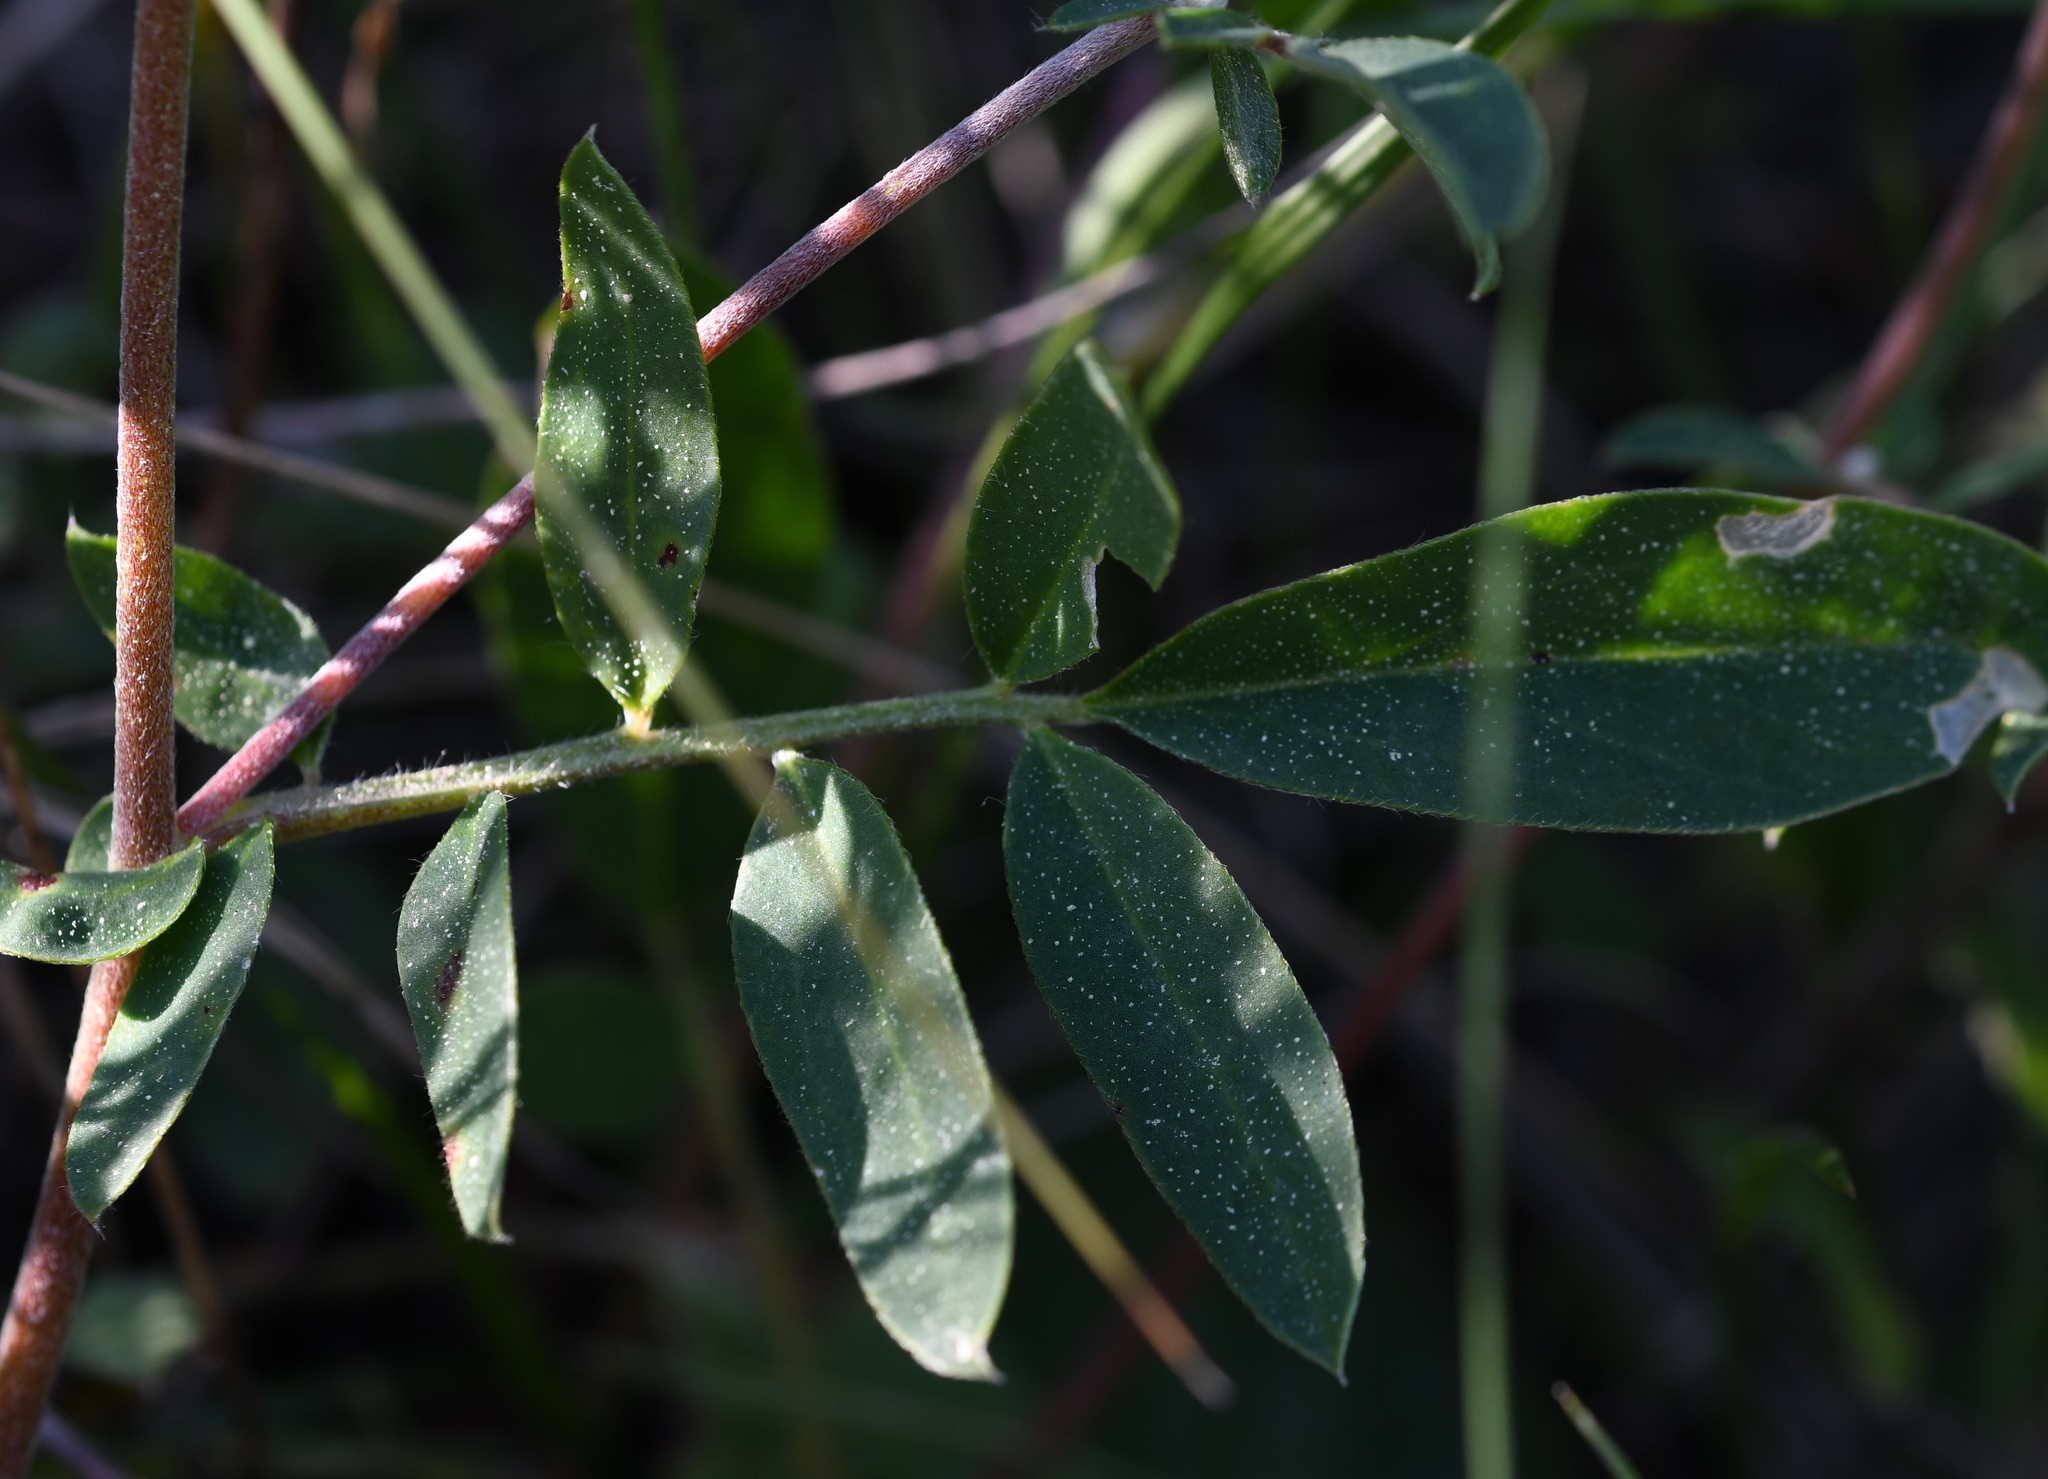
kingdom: Plantae
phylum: Tracheophyta
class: Magnoliopsida
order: Fabales
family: Fabaceae
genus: Anthyllis
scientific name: Anthyllis vulneraria
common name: Kidney vetch
